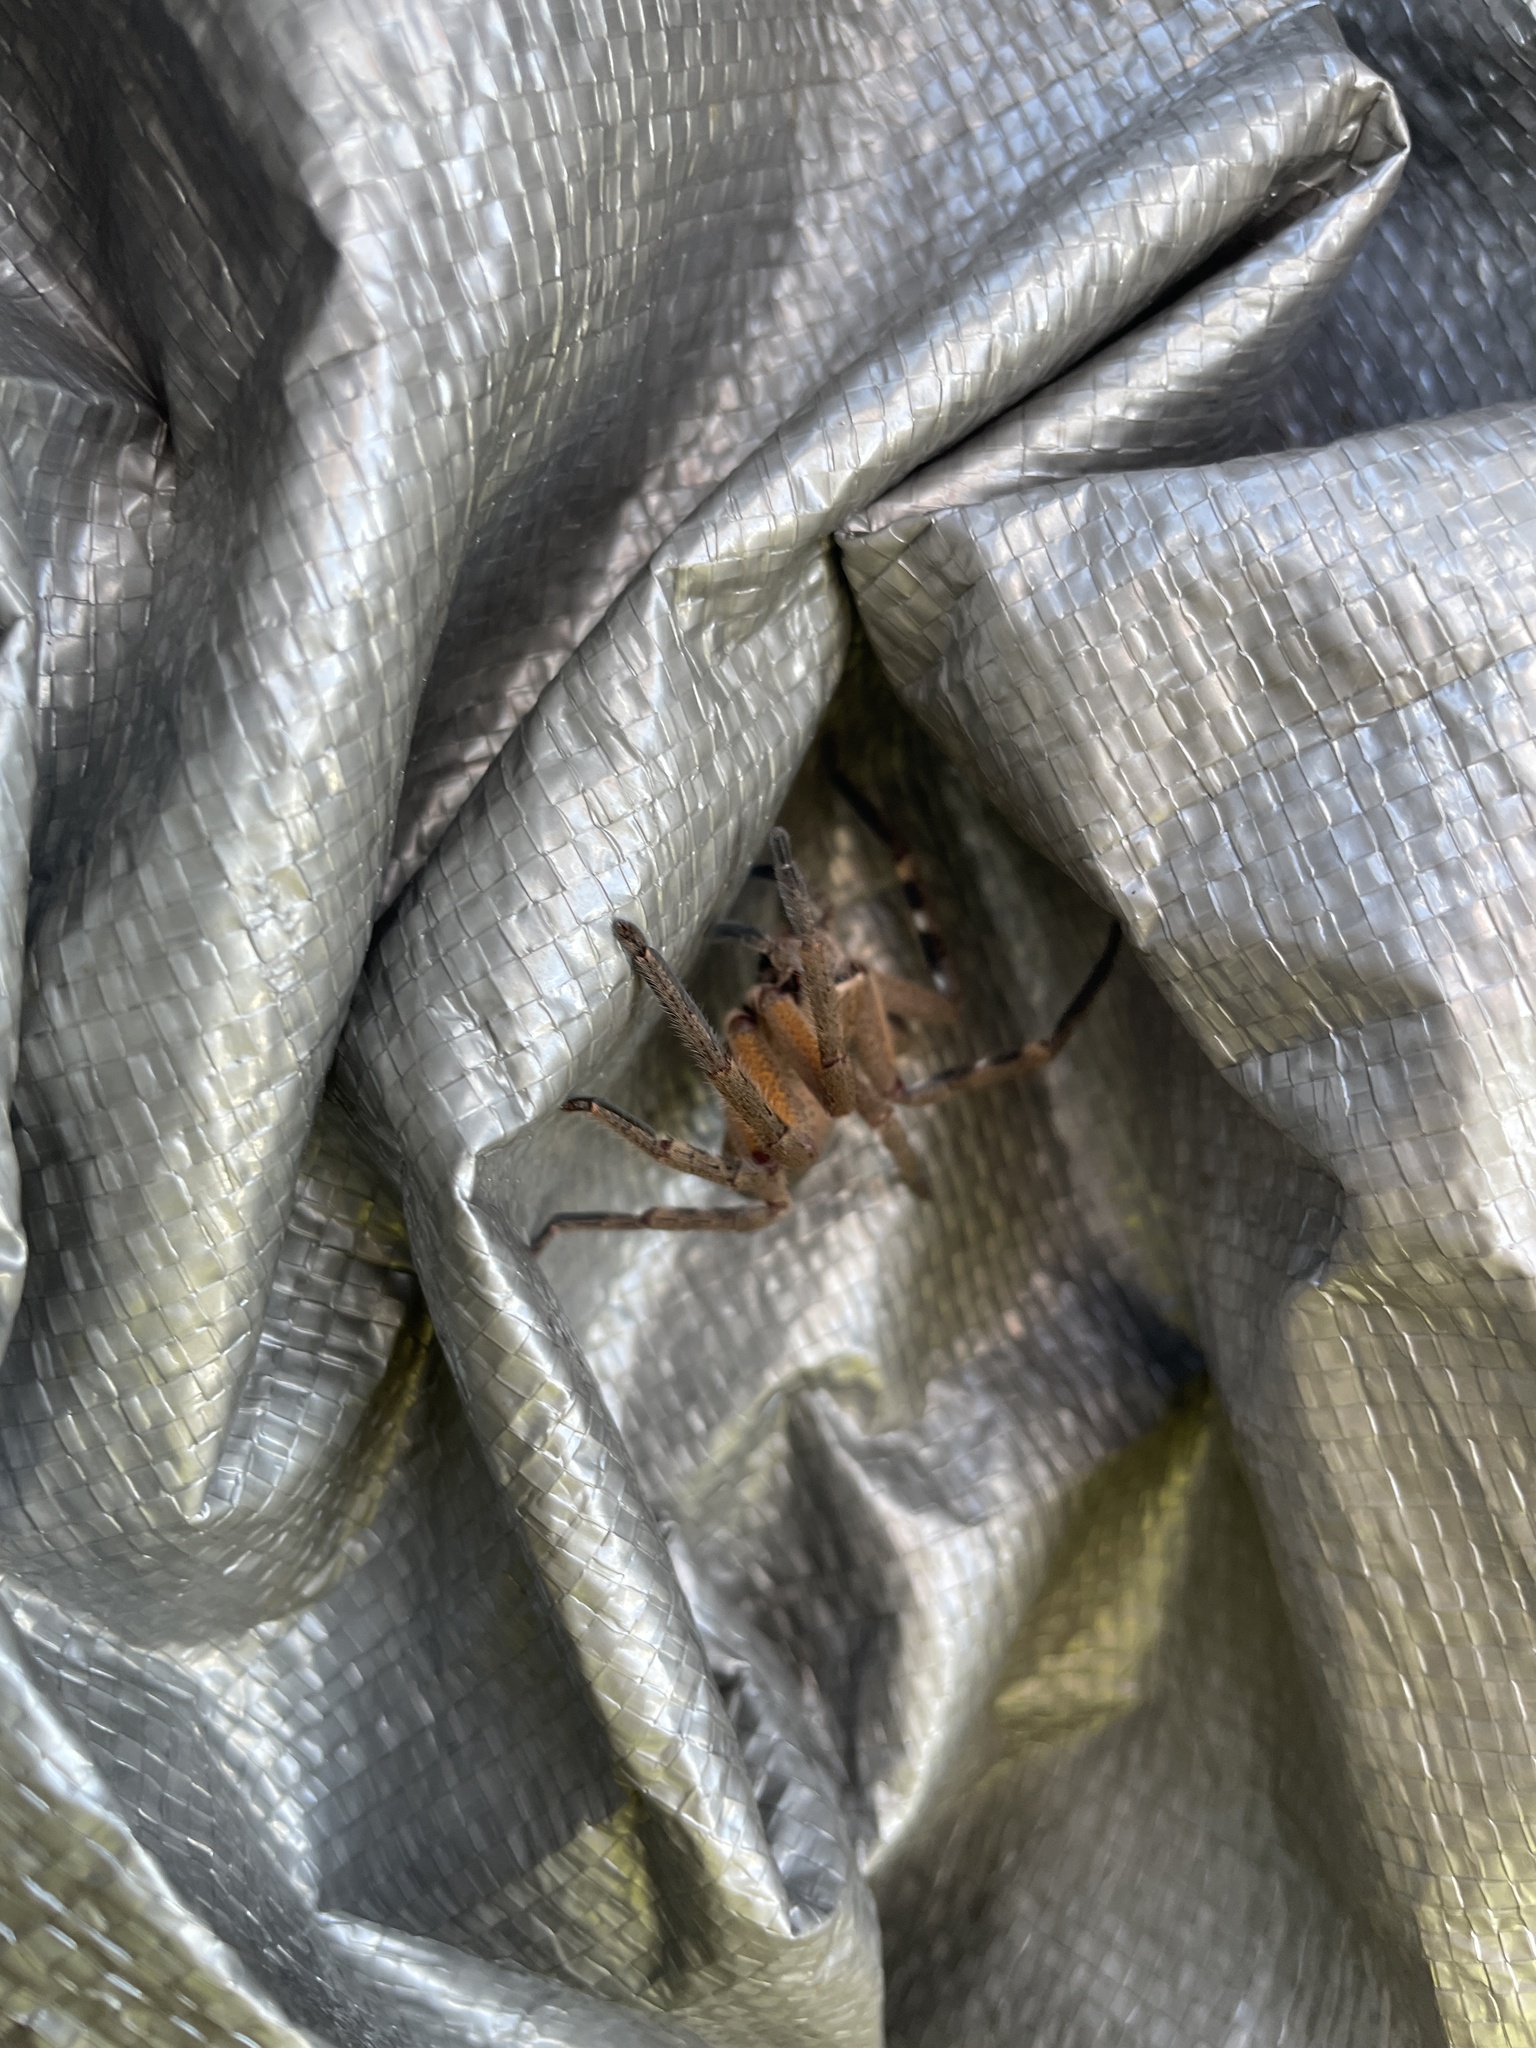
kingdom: Animalia
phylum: Arthropoda
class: Arachnida
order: Araneae
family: Sparassidae
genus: Neosparassus
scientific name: Neosparassus patellatus
